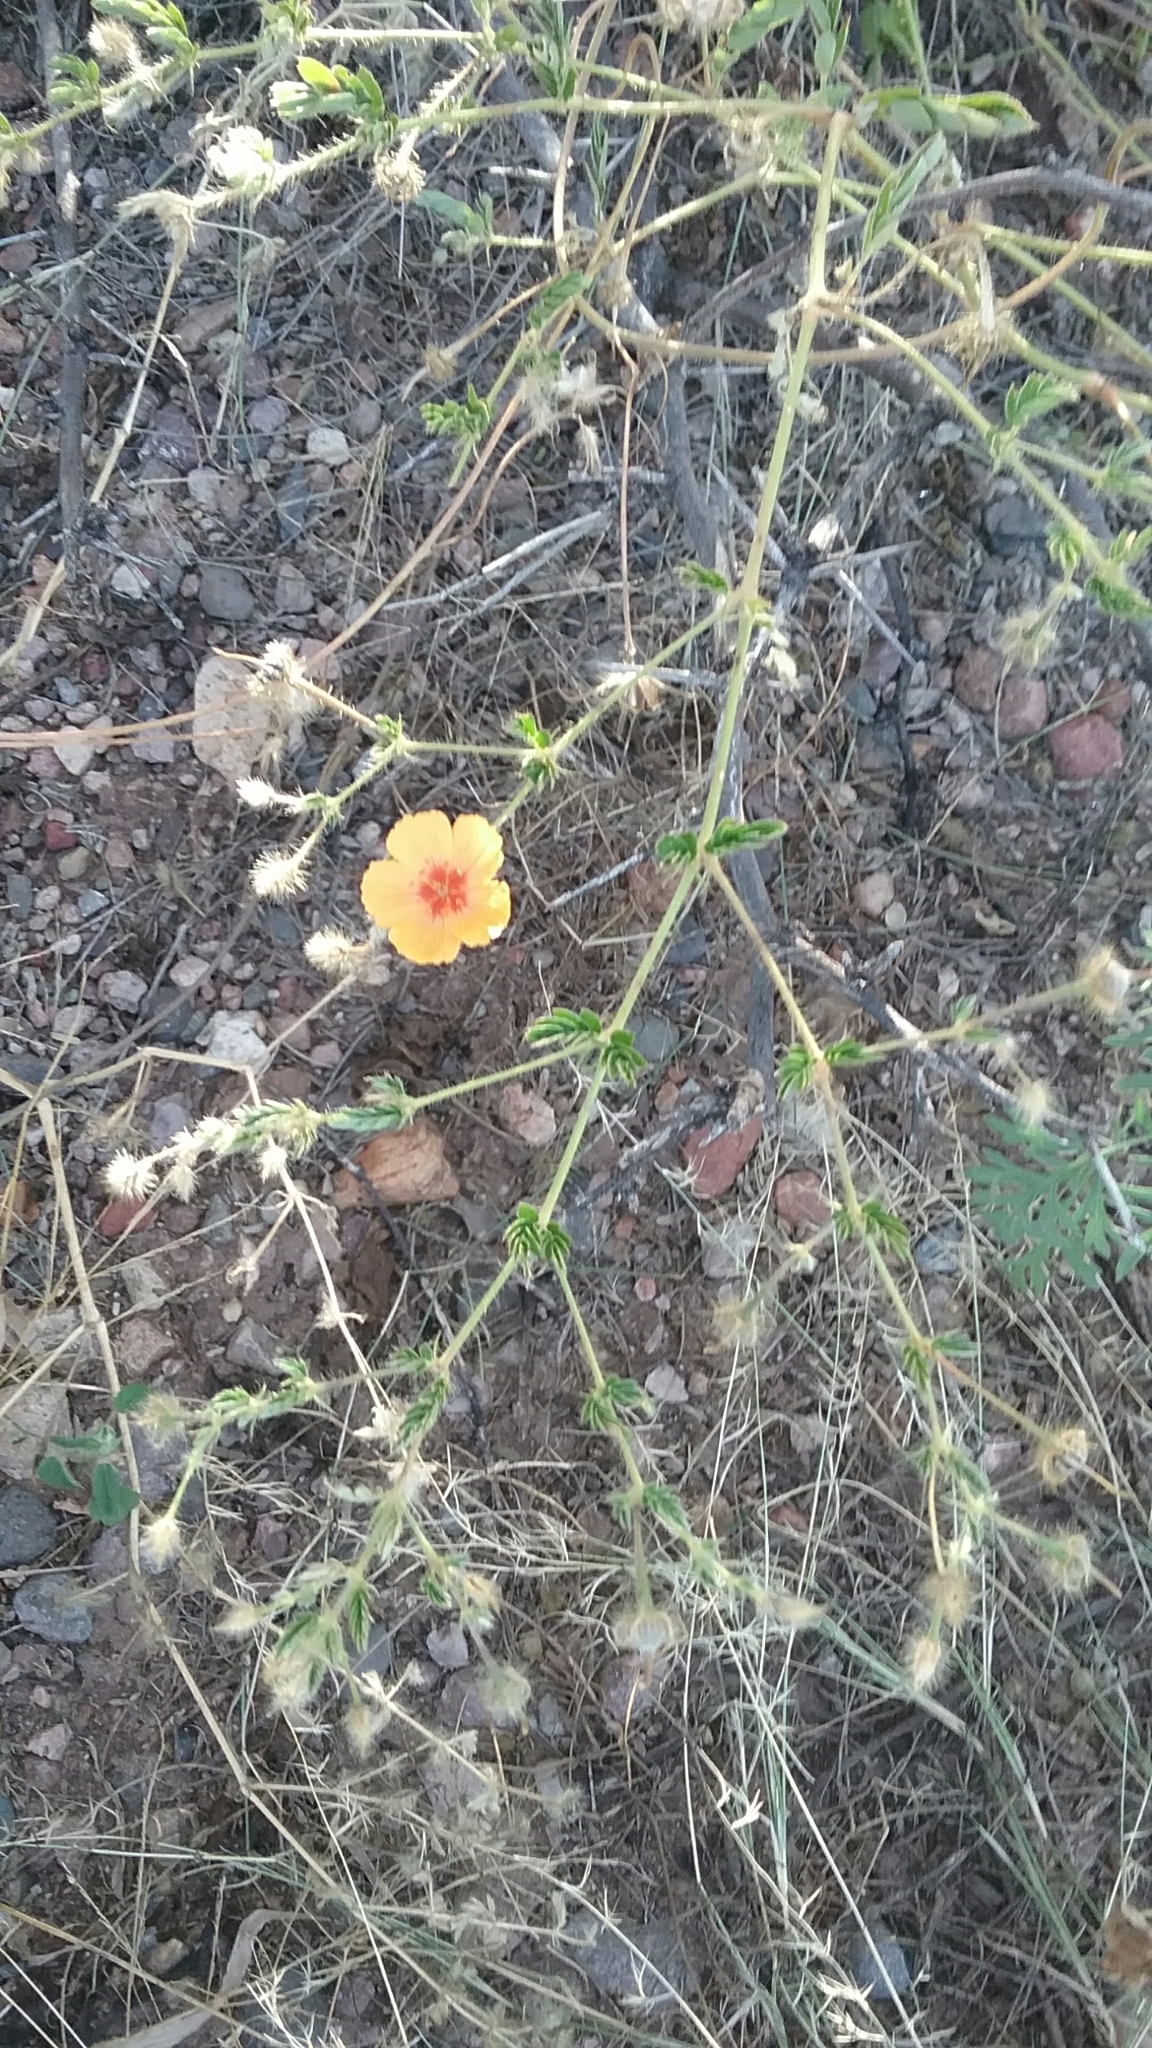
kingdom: Plantae
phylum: Tracheophyta
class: Magnoliopsida
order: Zygophyllales
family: Zygophyllaceae
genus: Kallstroemia
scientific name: Kallstroemia grandiflora
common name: Arizona-poppy
